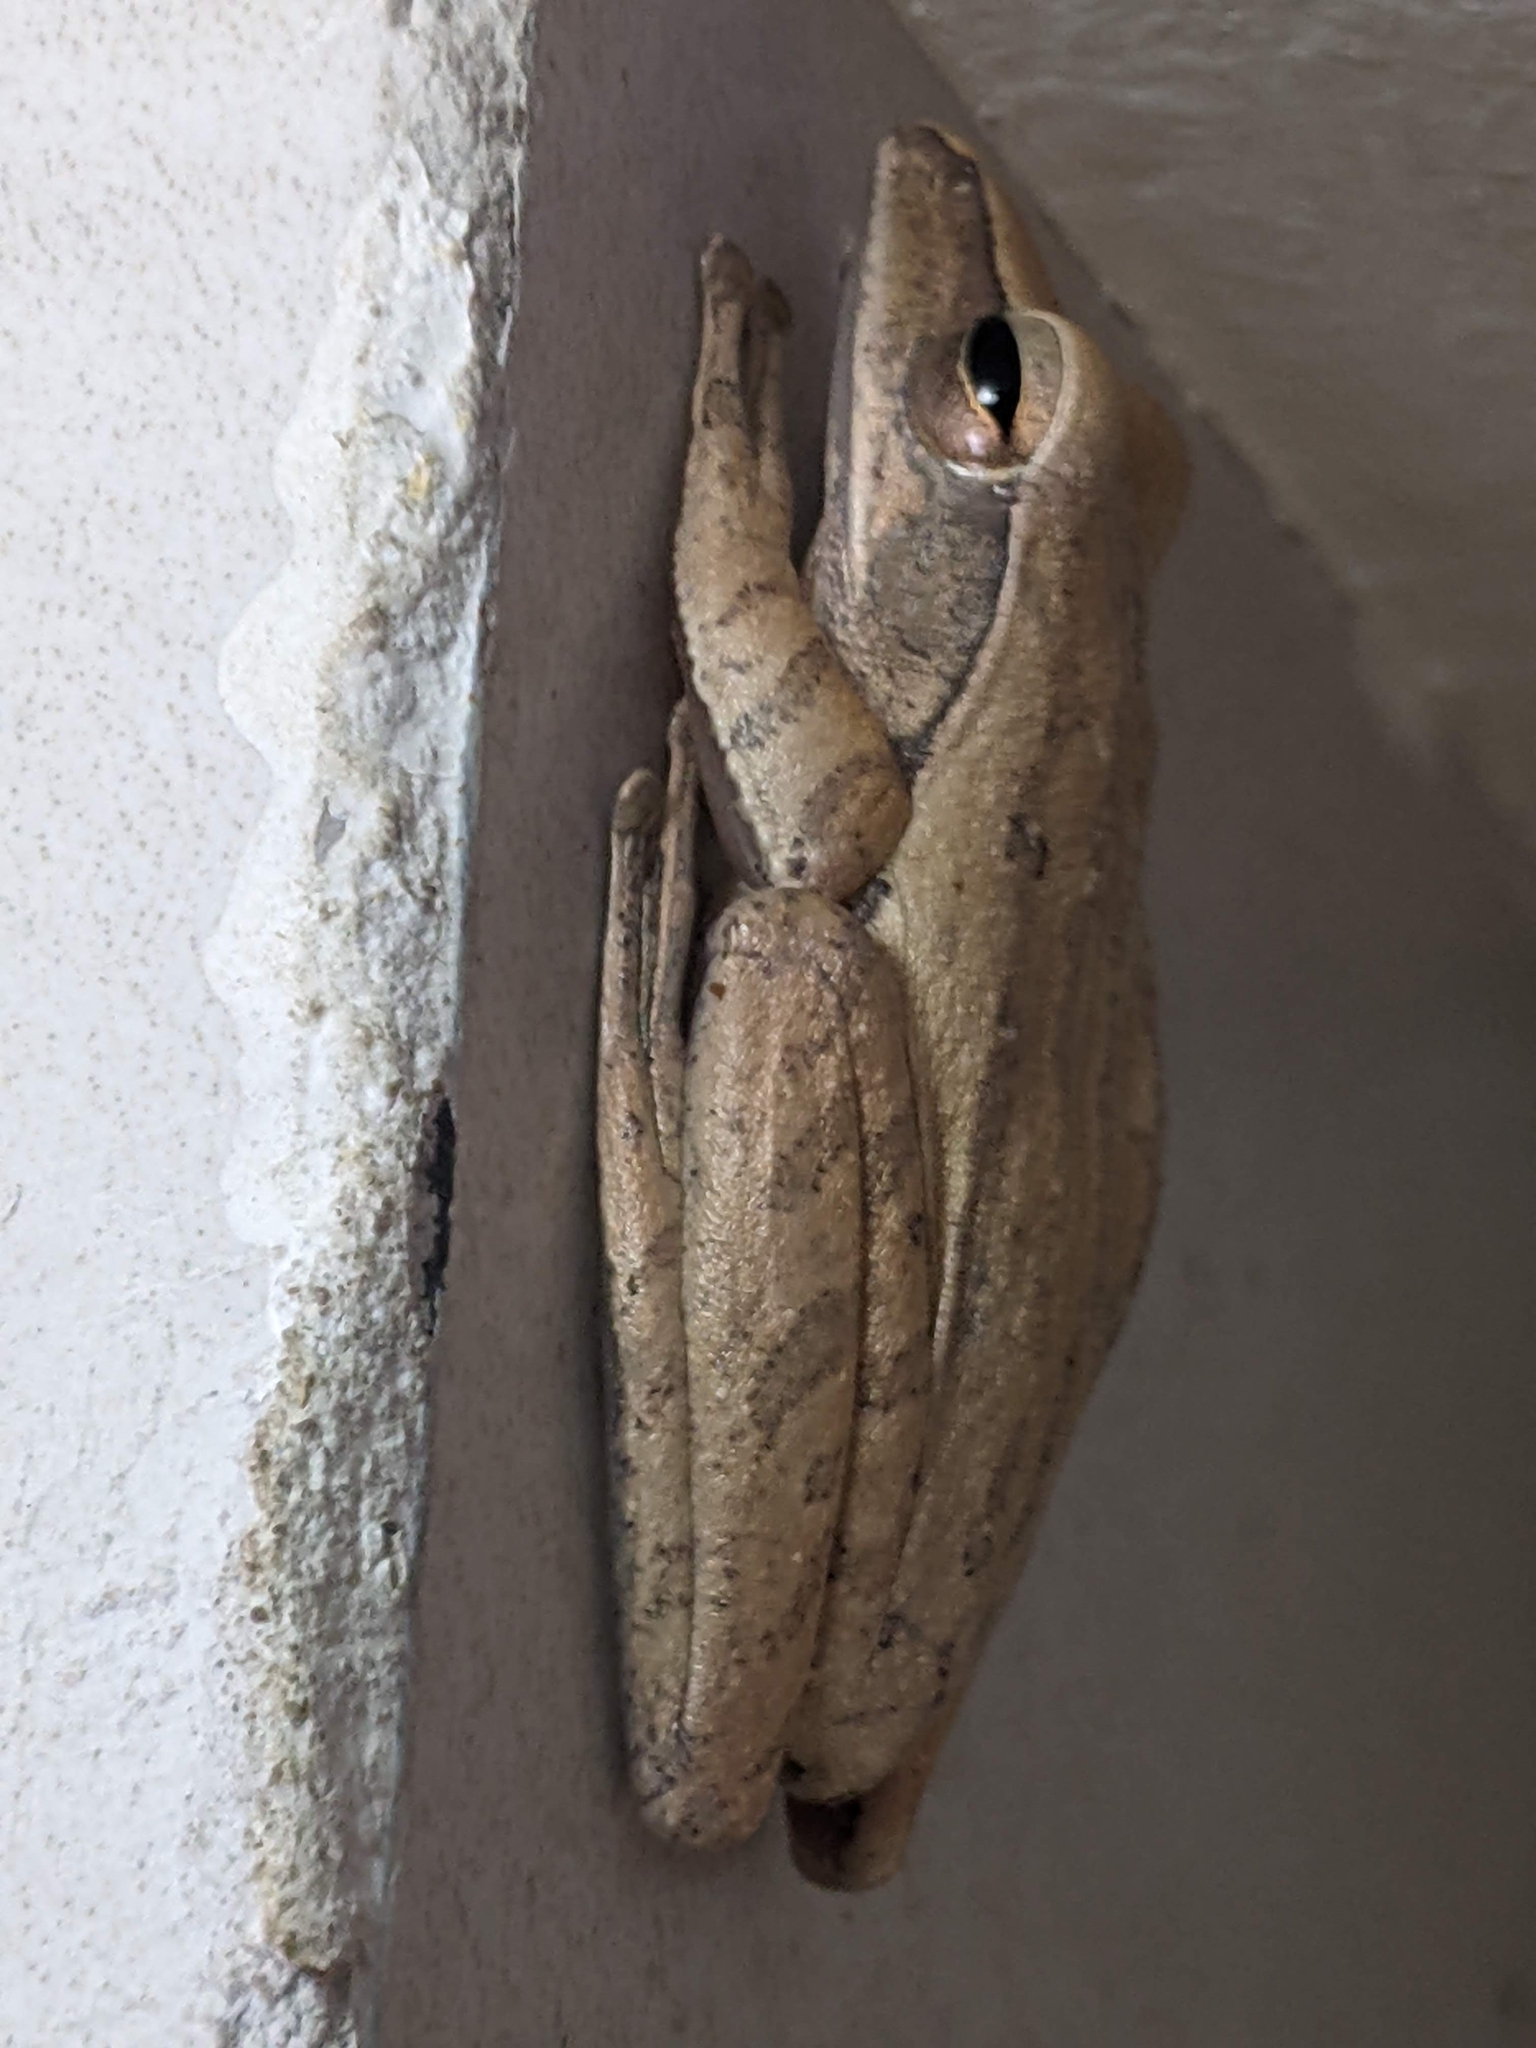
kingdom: Animalia
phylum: Chordata
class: Amphibia
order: Anura
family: Rhacophoridae
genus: Polypedates
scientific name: Polypedates leucomystax
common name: Common tree frog/four-lined tree frog
